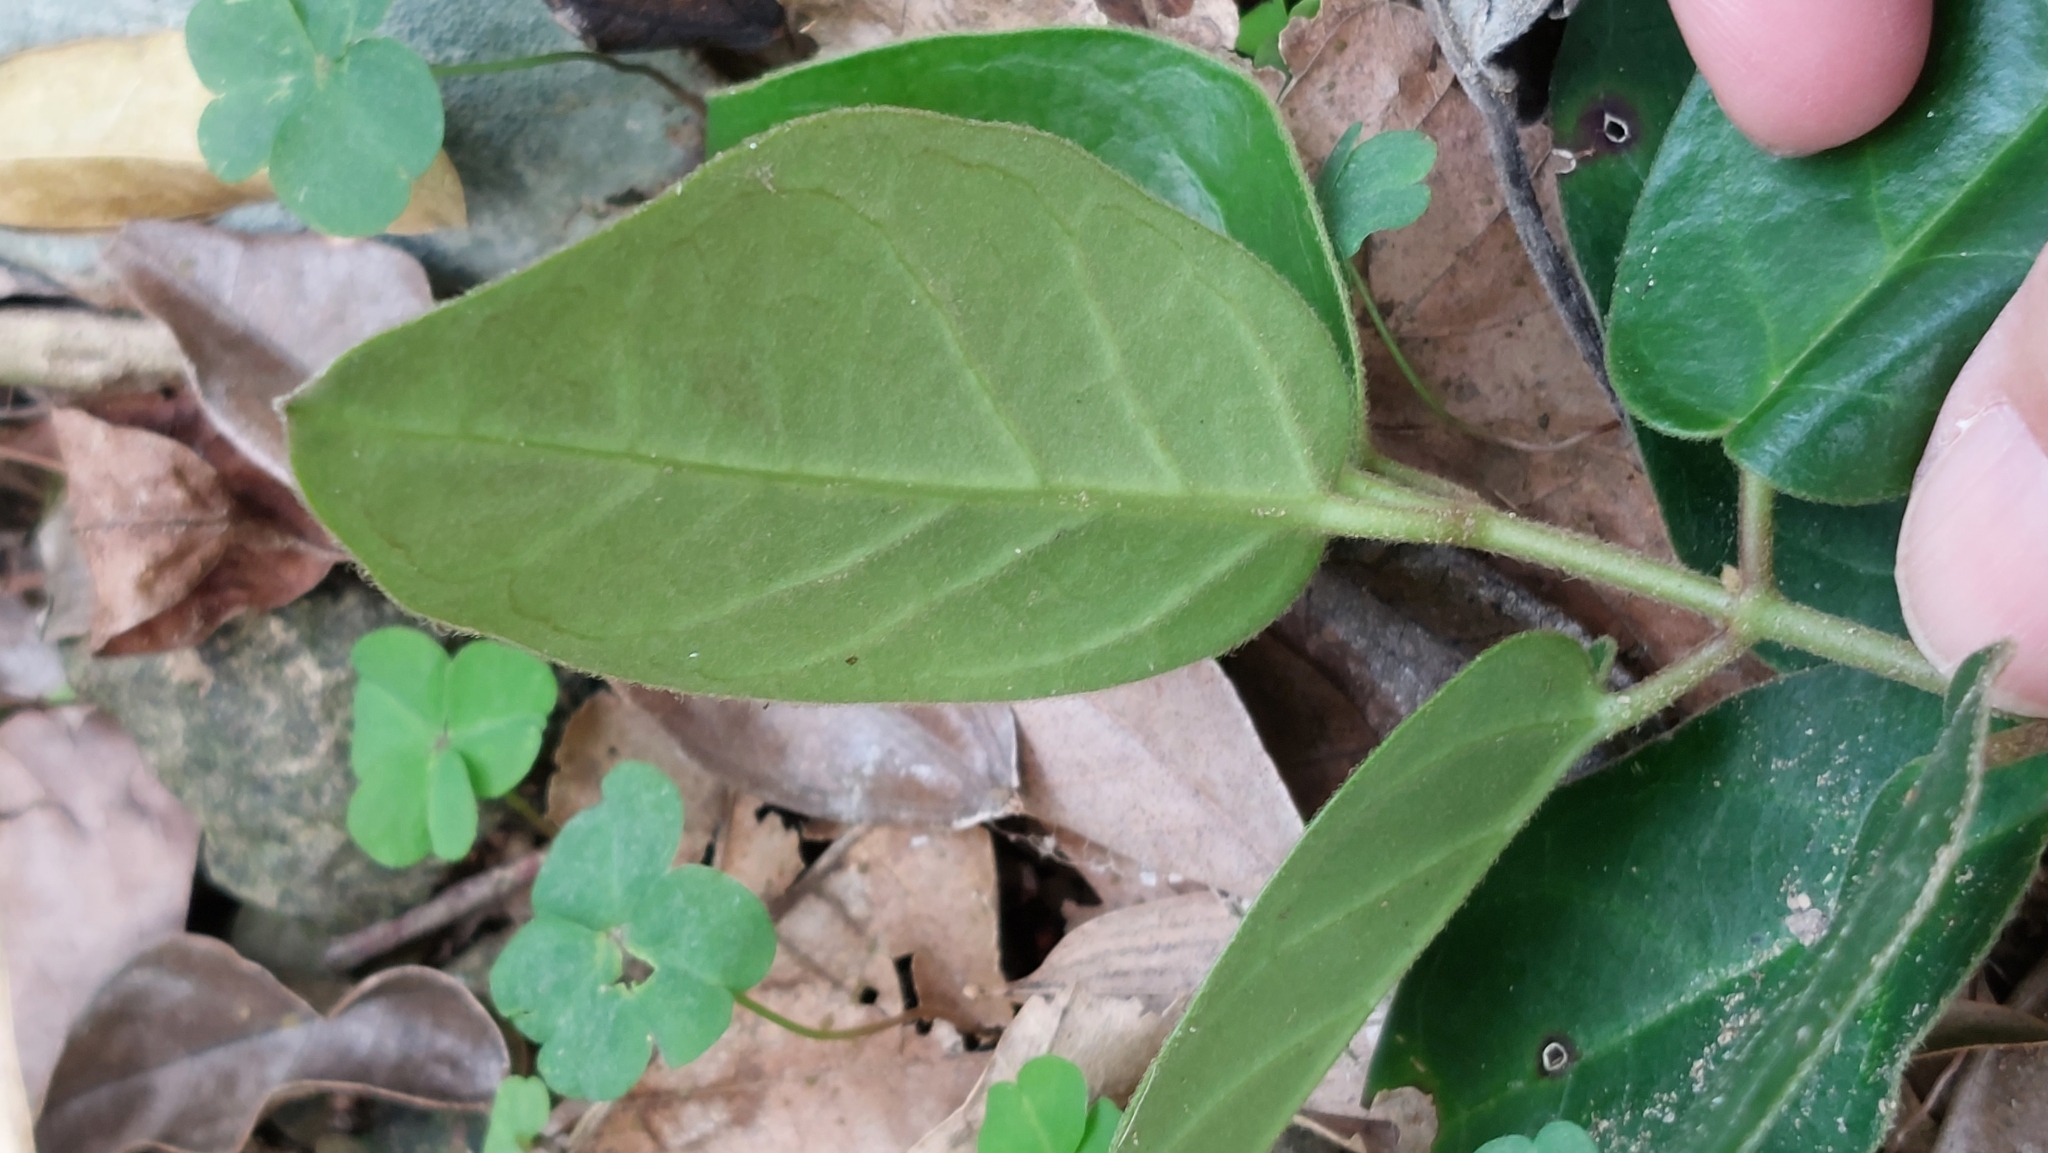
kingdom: Plantae
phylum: Tracheophyta
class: Magnoliopsida
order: Gentianales
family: Apocynaceae
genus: Vincetoxicum
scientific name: Vincetoxicum hirsutum
